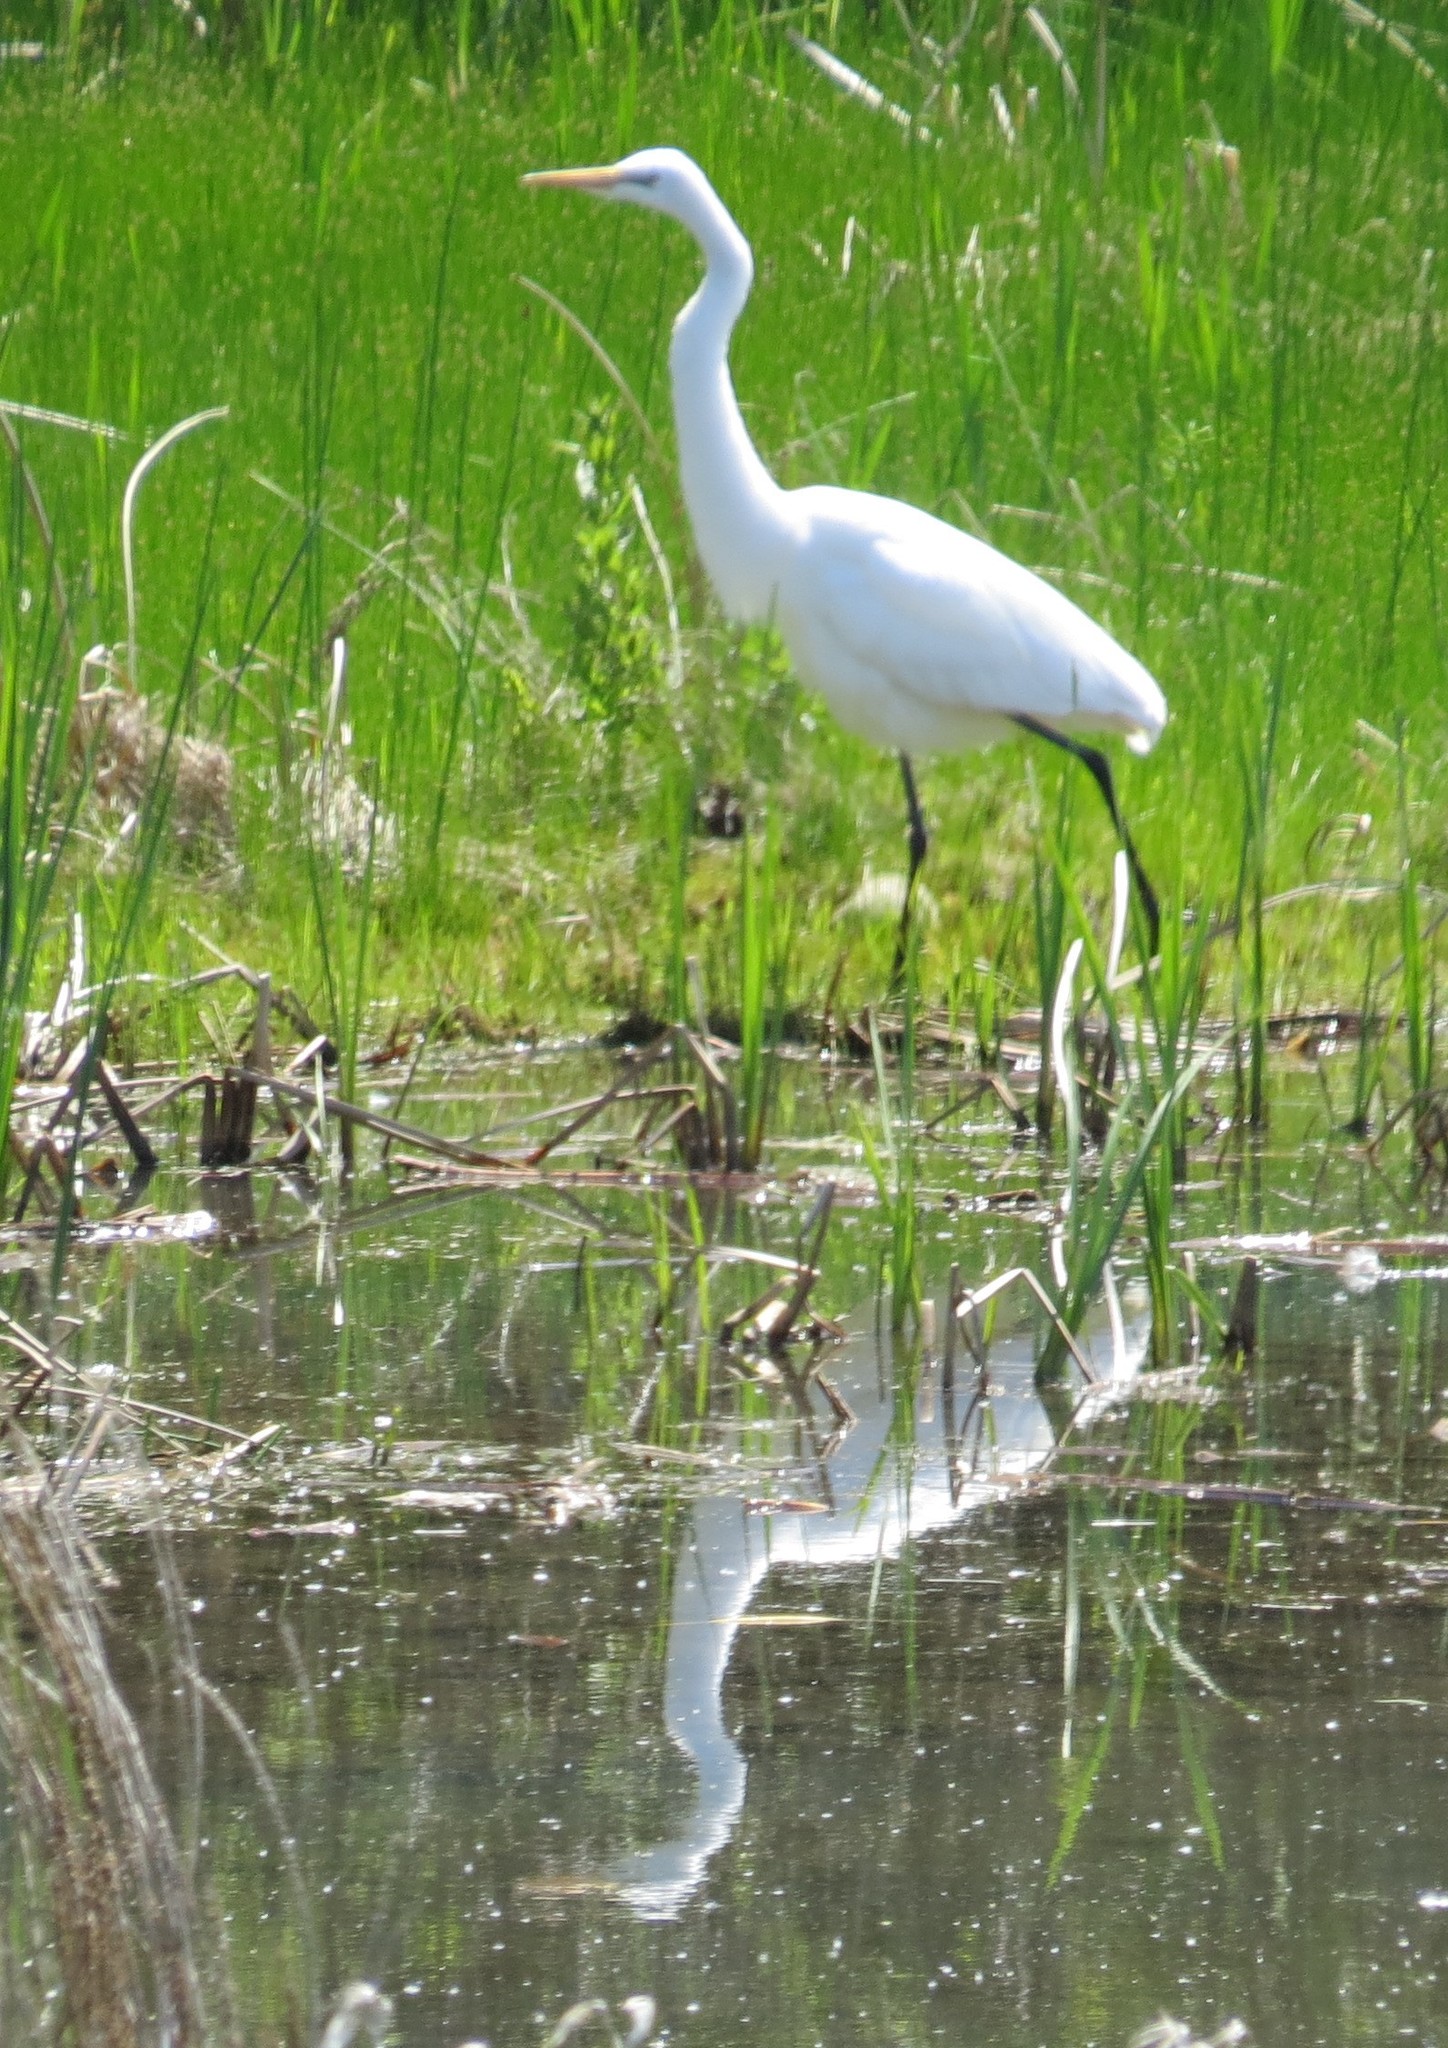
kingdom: Animalia
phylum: Chordata
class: Aves
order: Pelecaniformes
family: Ardeidae
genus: Ardea
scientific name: Ardea alba
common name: Great egret
